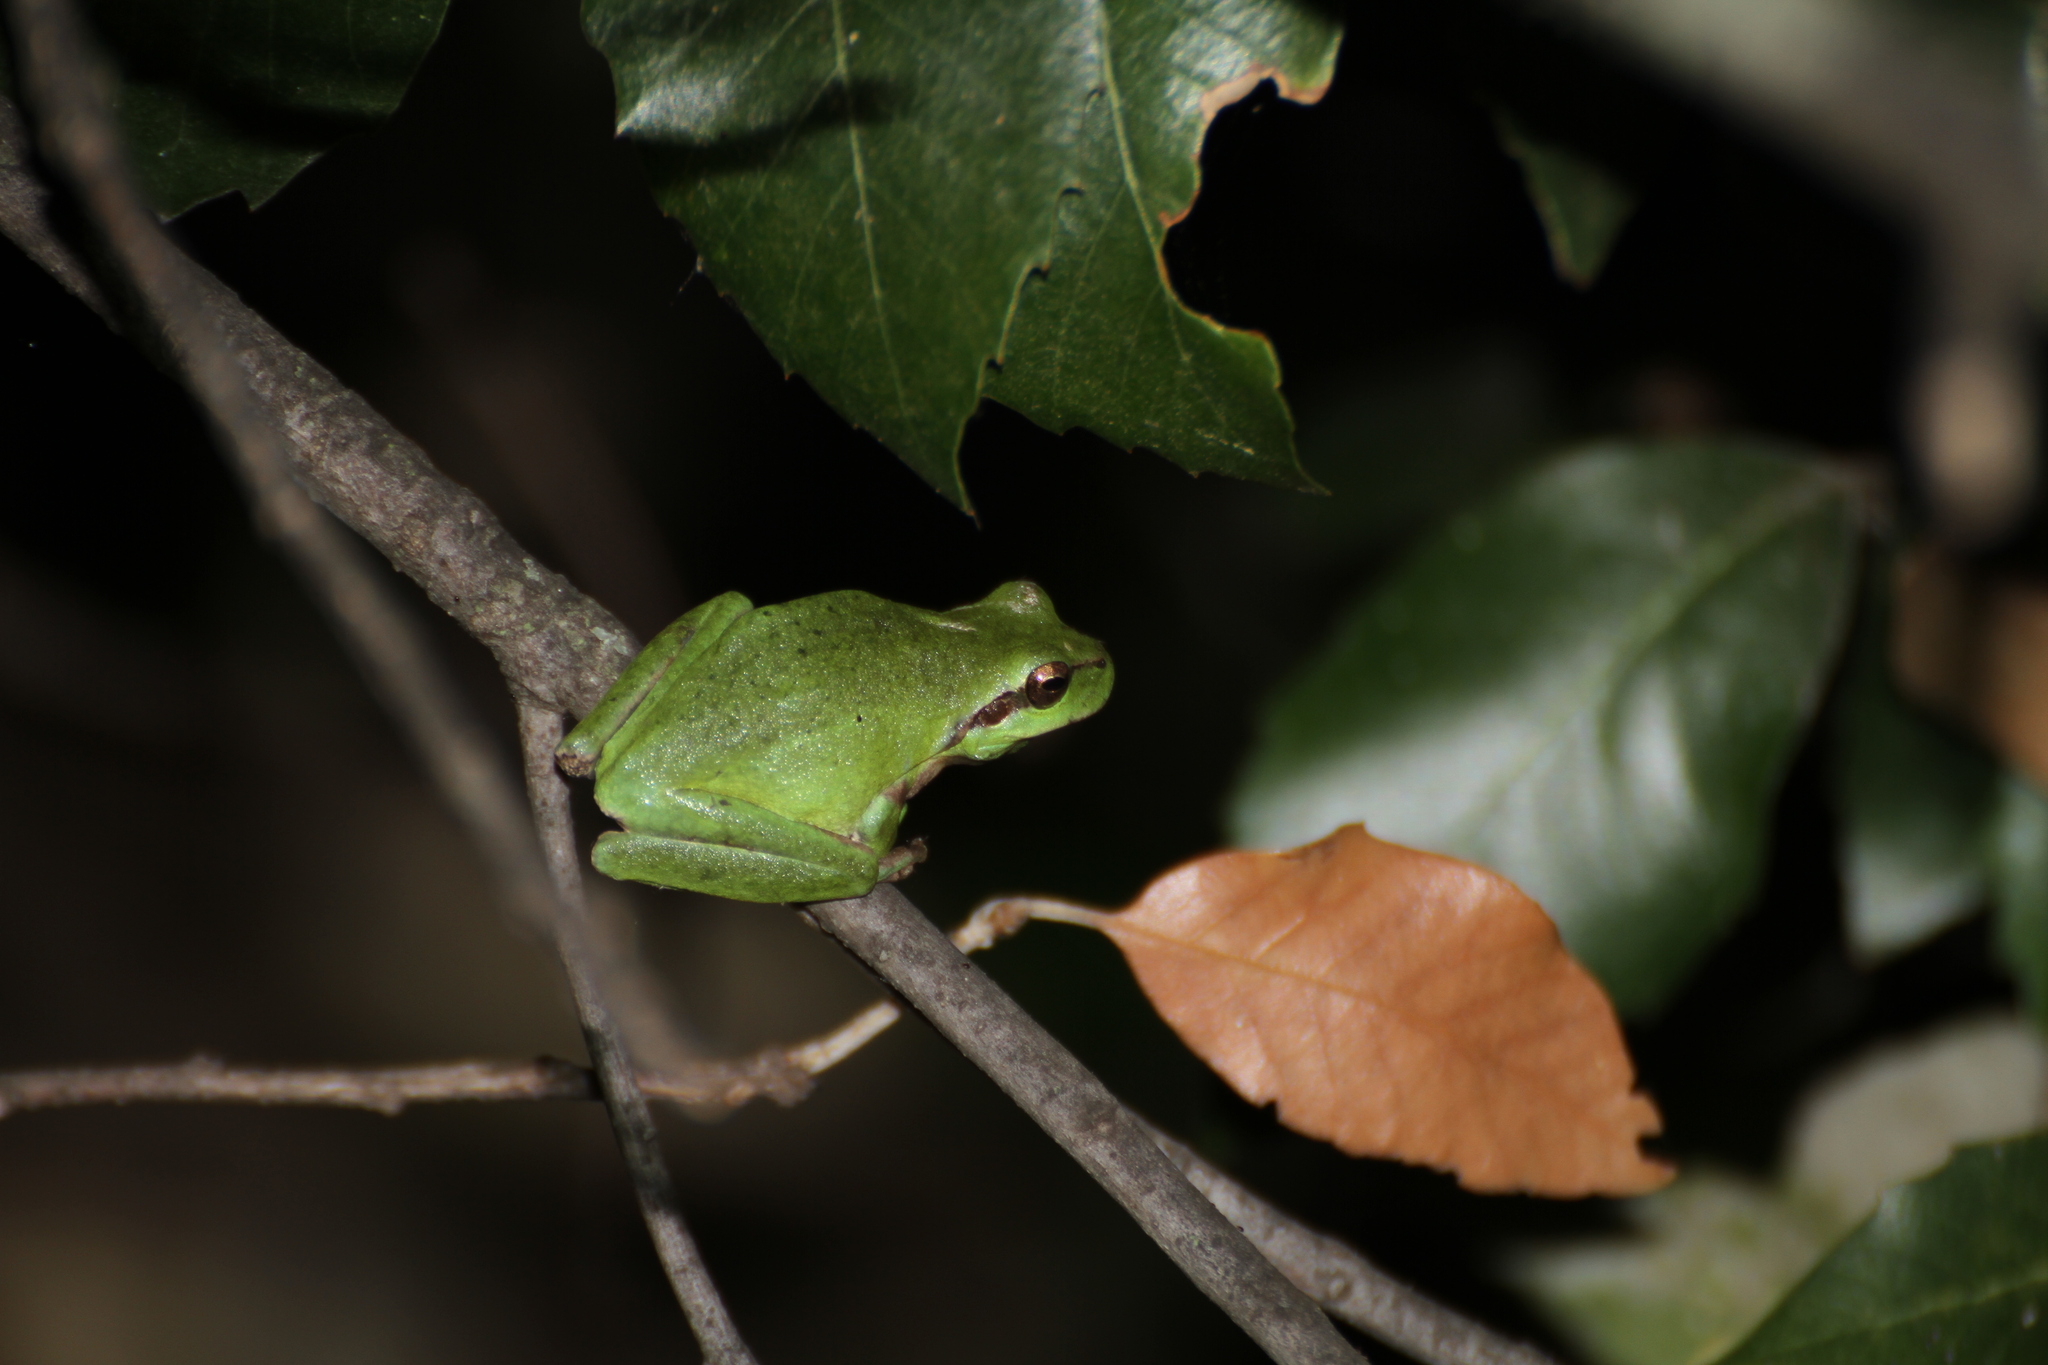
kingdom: Animalia
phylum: Chordata
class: Amphibia
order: Anura
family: Hylidae
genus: Hyla
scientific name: Hyla meridionalis
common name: Stripeless tree frog
